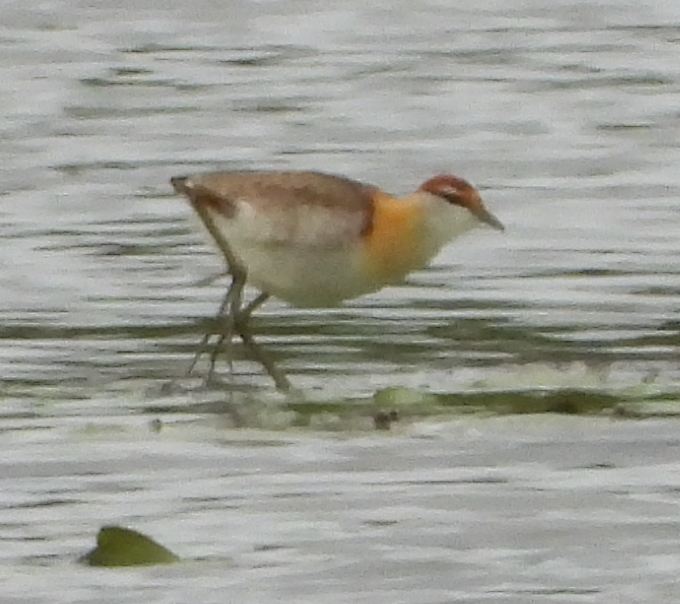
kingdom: Animalia
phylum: Chordata
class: Aves
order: Charadriiformes
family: Jacanidae
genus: Microparra
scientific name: Microparra capensis
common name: Lesser jacana
